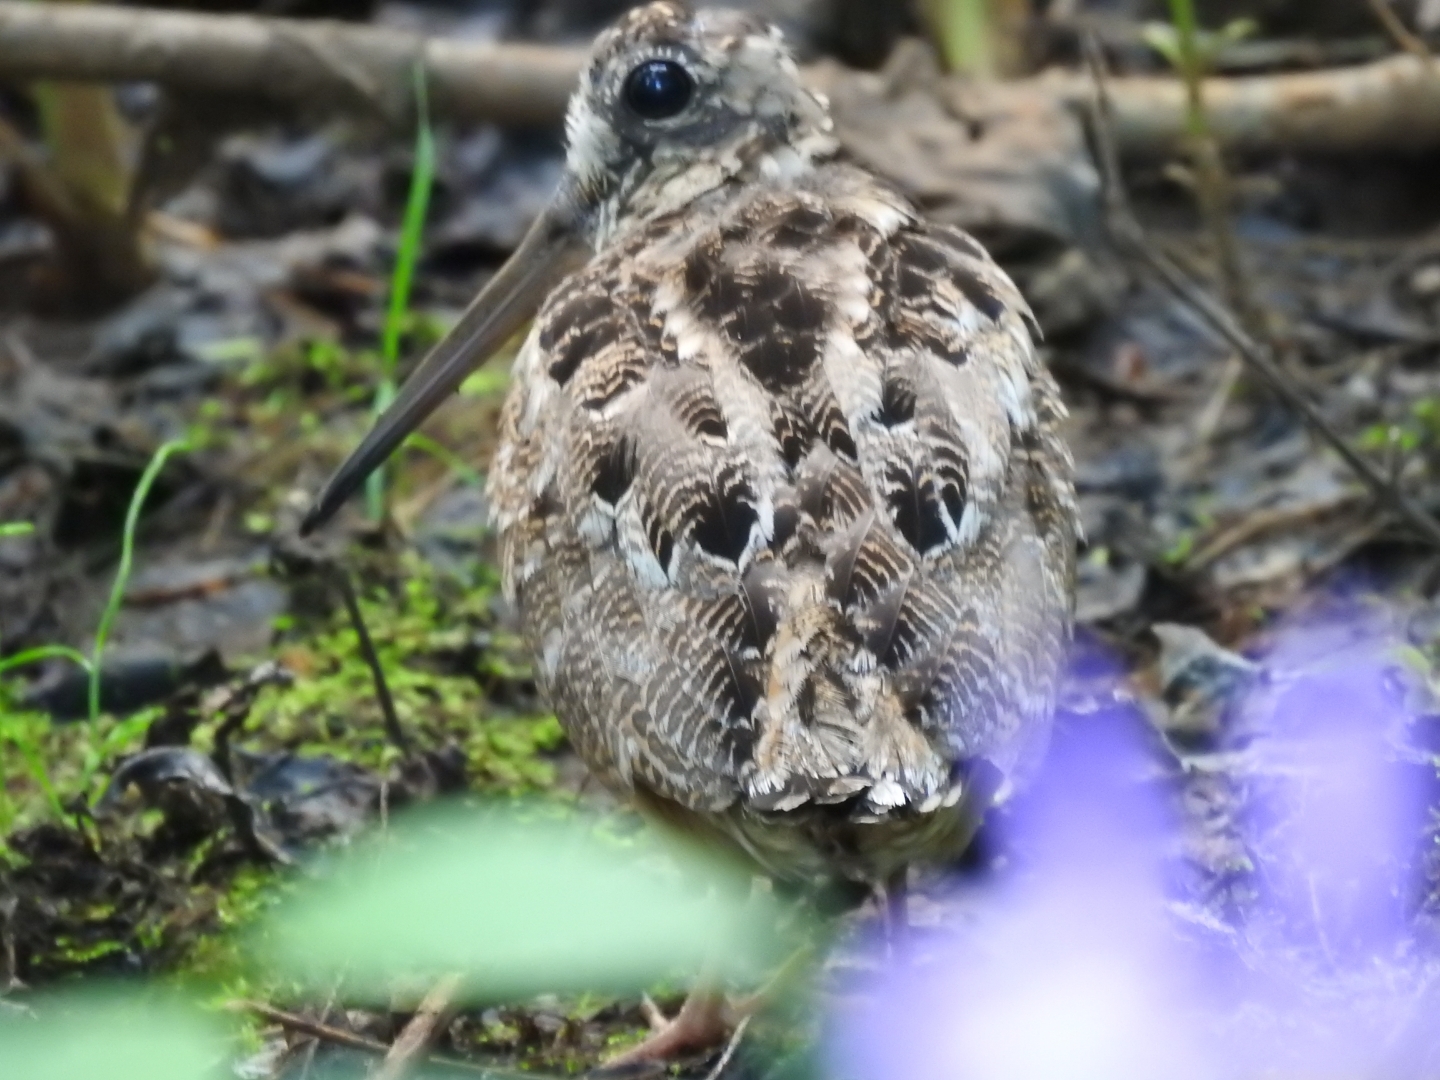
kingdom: Animalia
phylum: Chordata
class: Aves
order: Charadriiformes
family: Scolopacidae
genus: Scolopax
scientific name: Scolopax minor
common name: American woodcock
